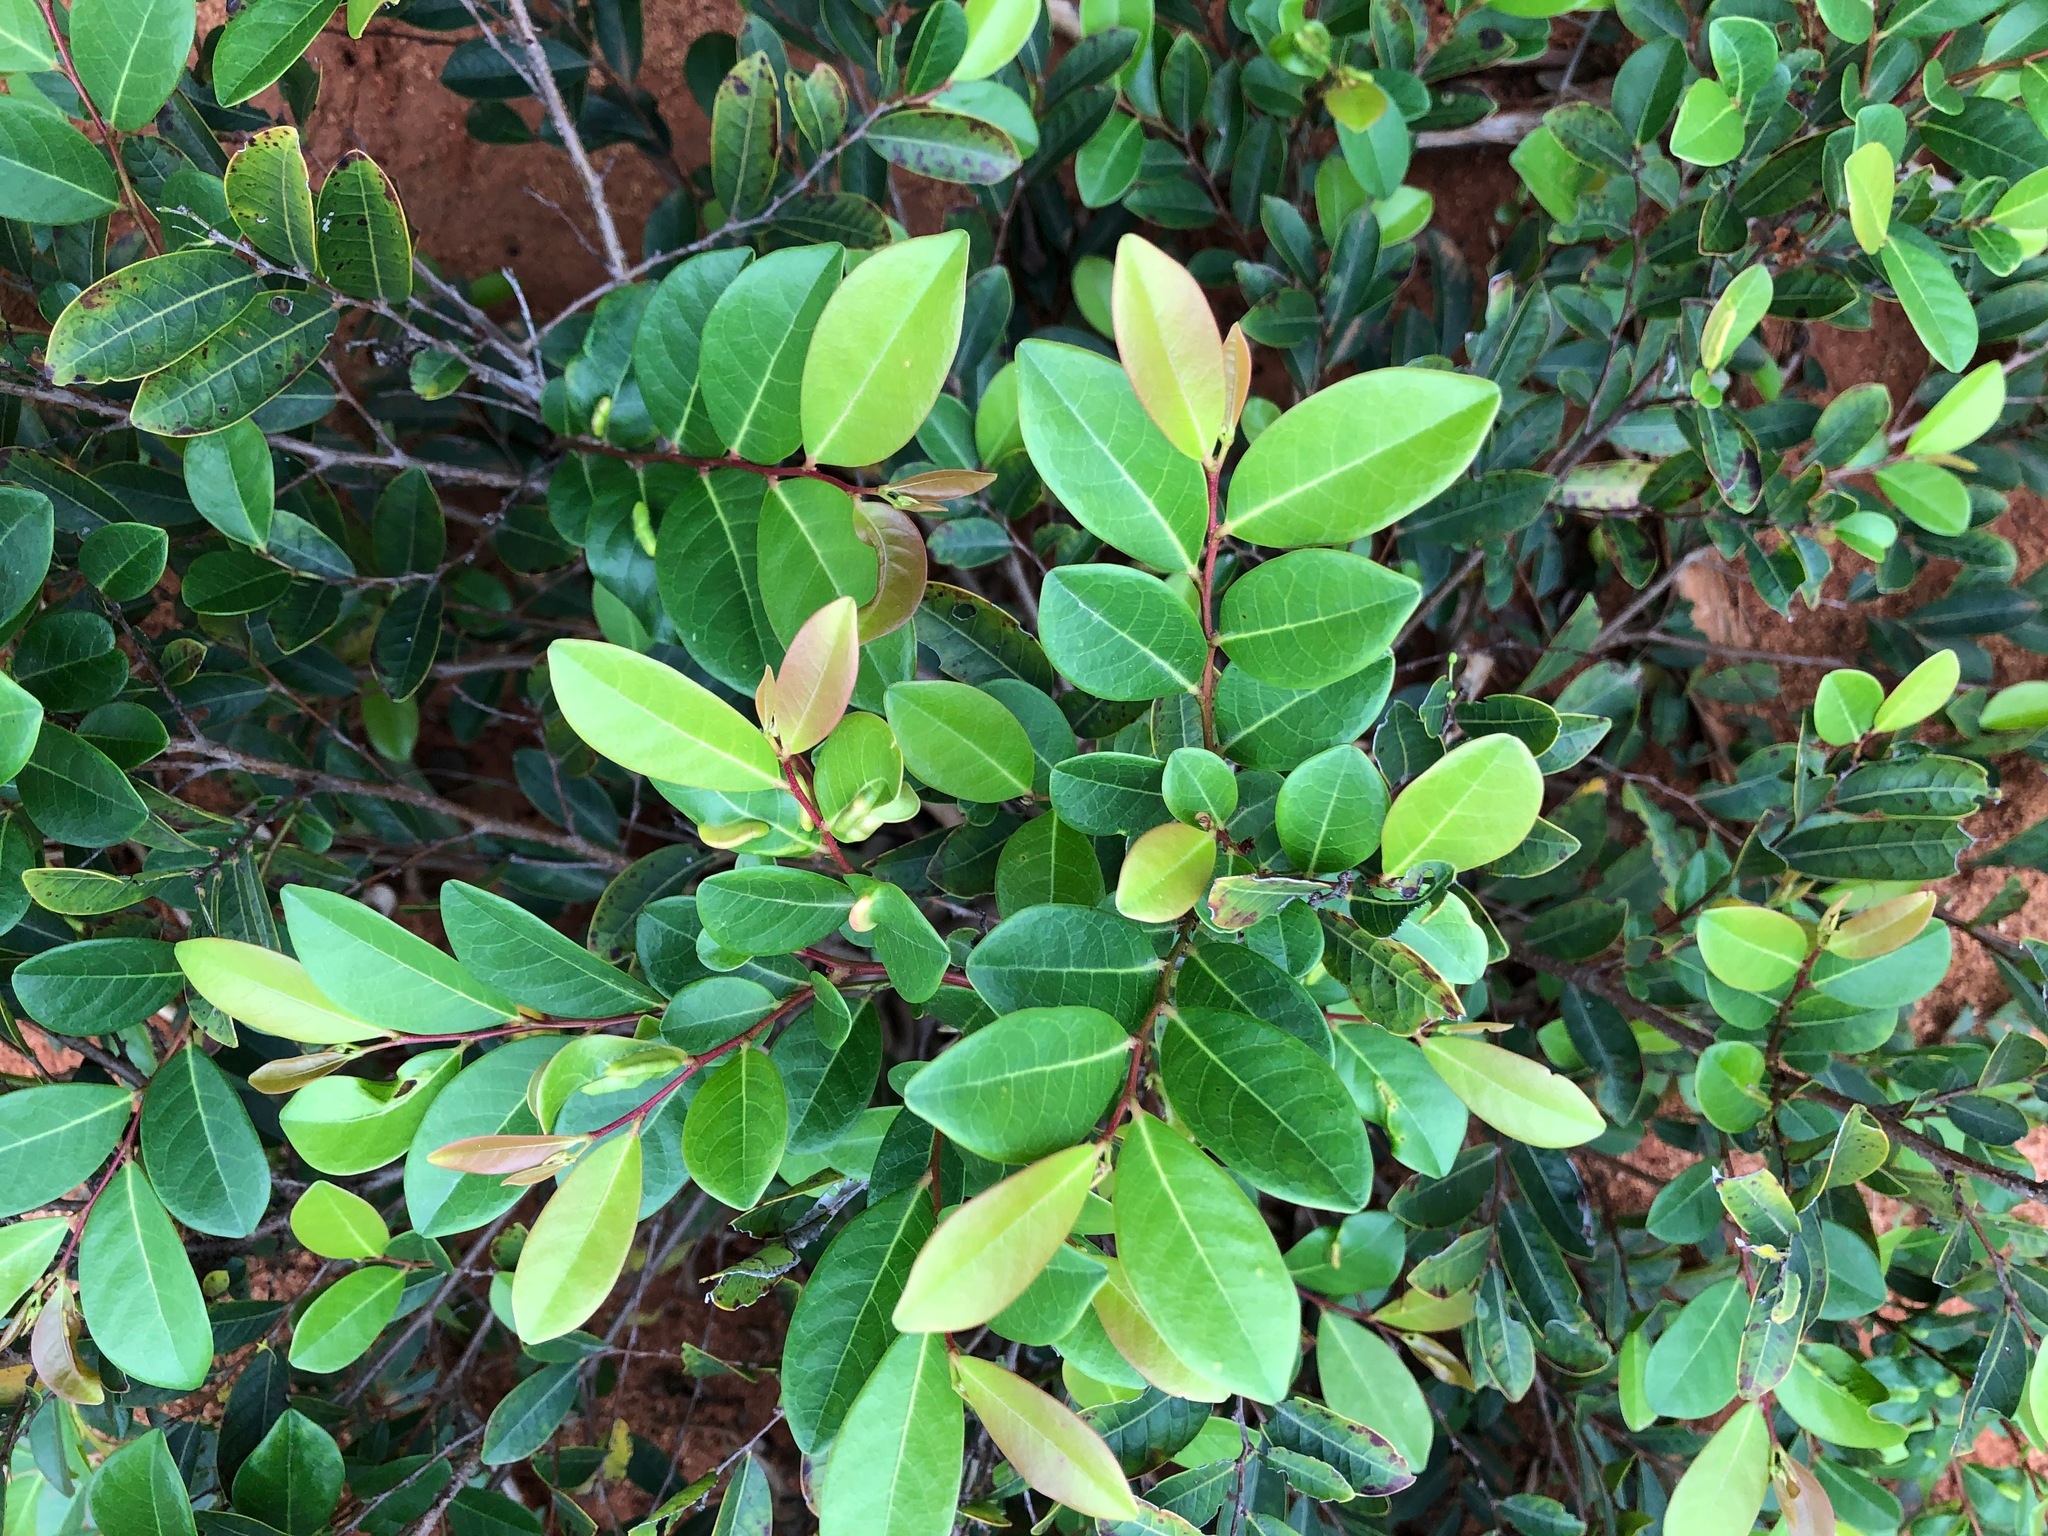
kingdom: Plantae
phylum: Tracheophyta
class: Magnoliopsida
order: Malpighiales
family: Phyllanthaceae
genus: Glochidion
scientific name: Glochidion rubrum
